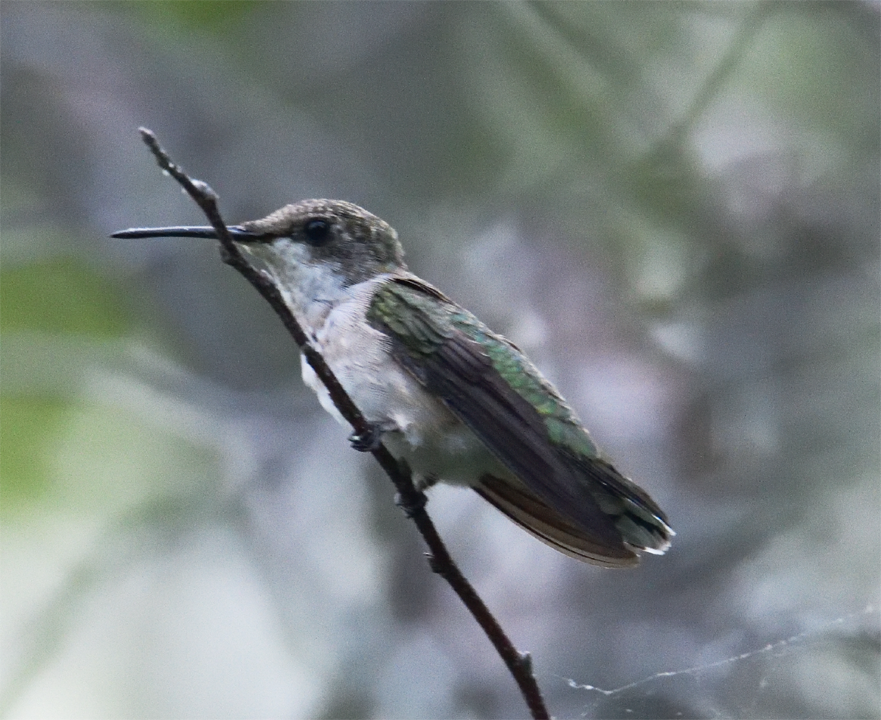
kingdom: Animalia
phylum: Chordata
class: Aves
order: Apodiformes
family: Trochilidae
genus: Archilochus
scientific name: Archilochus colubris
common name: Ruby-throated hummingbird
